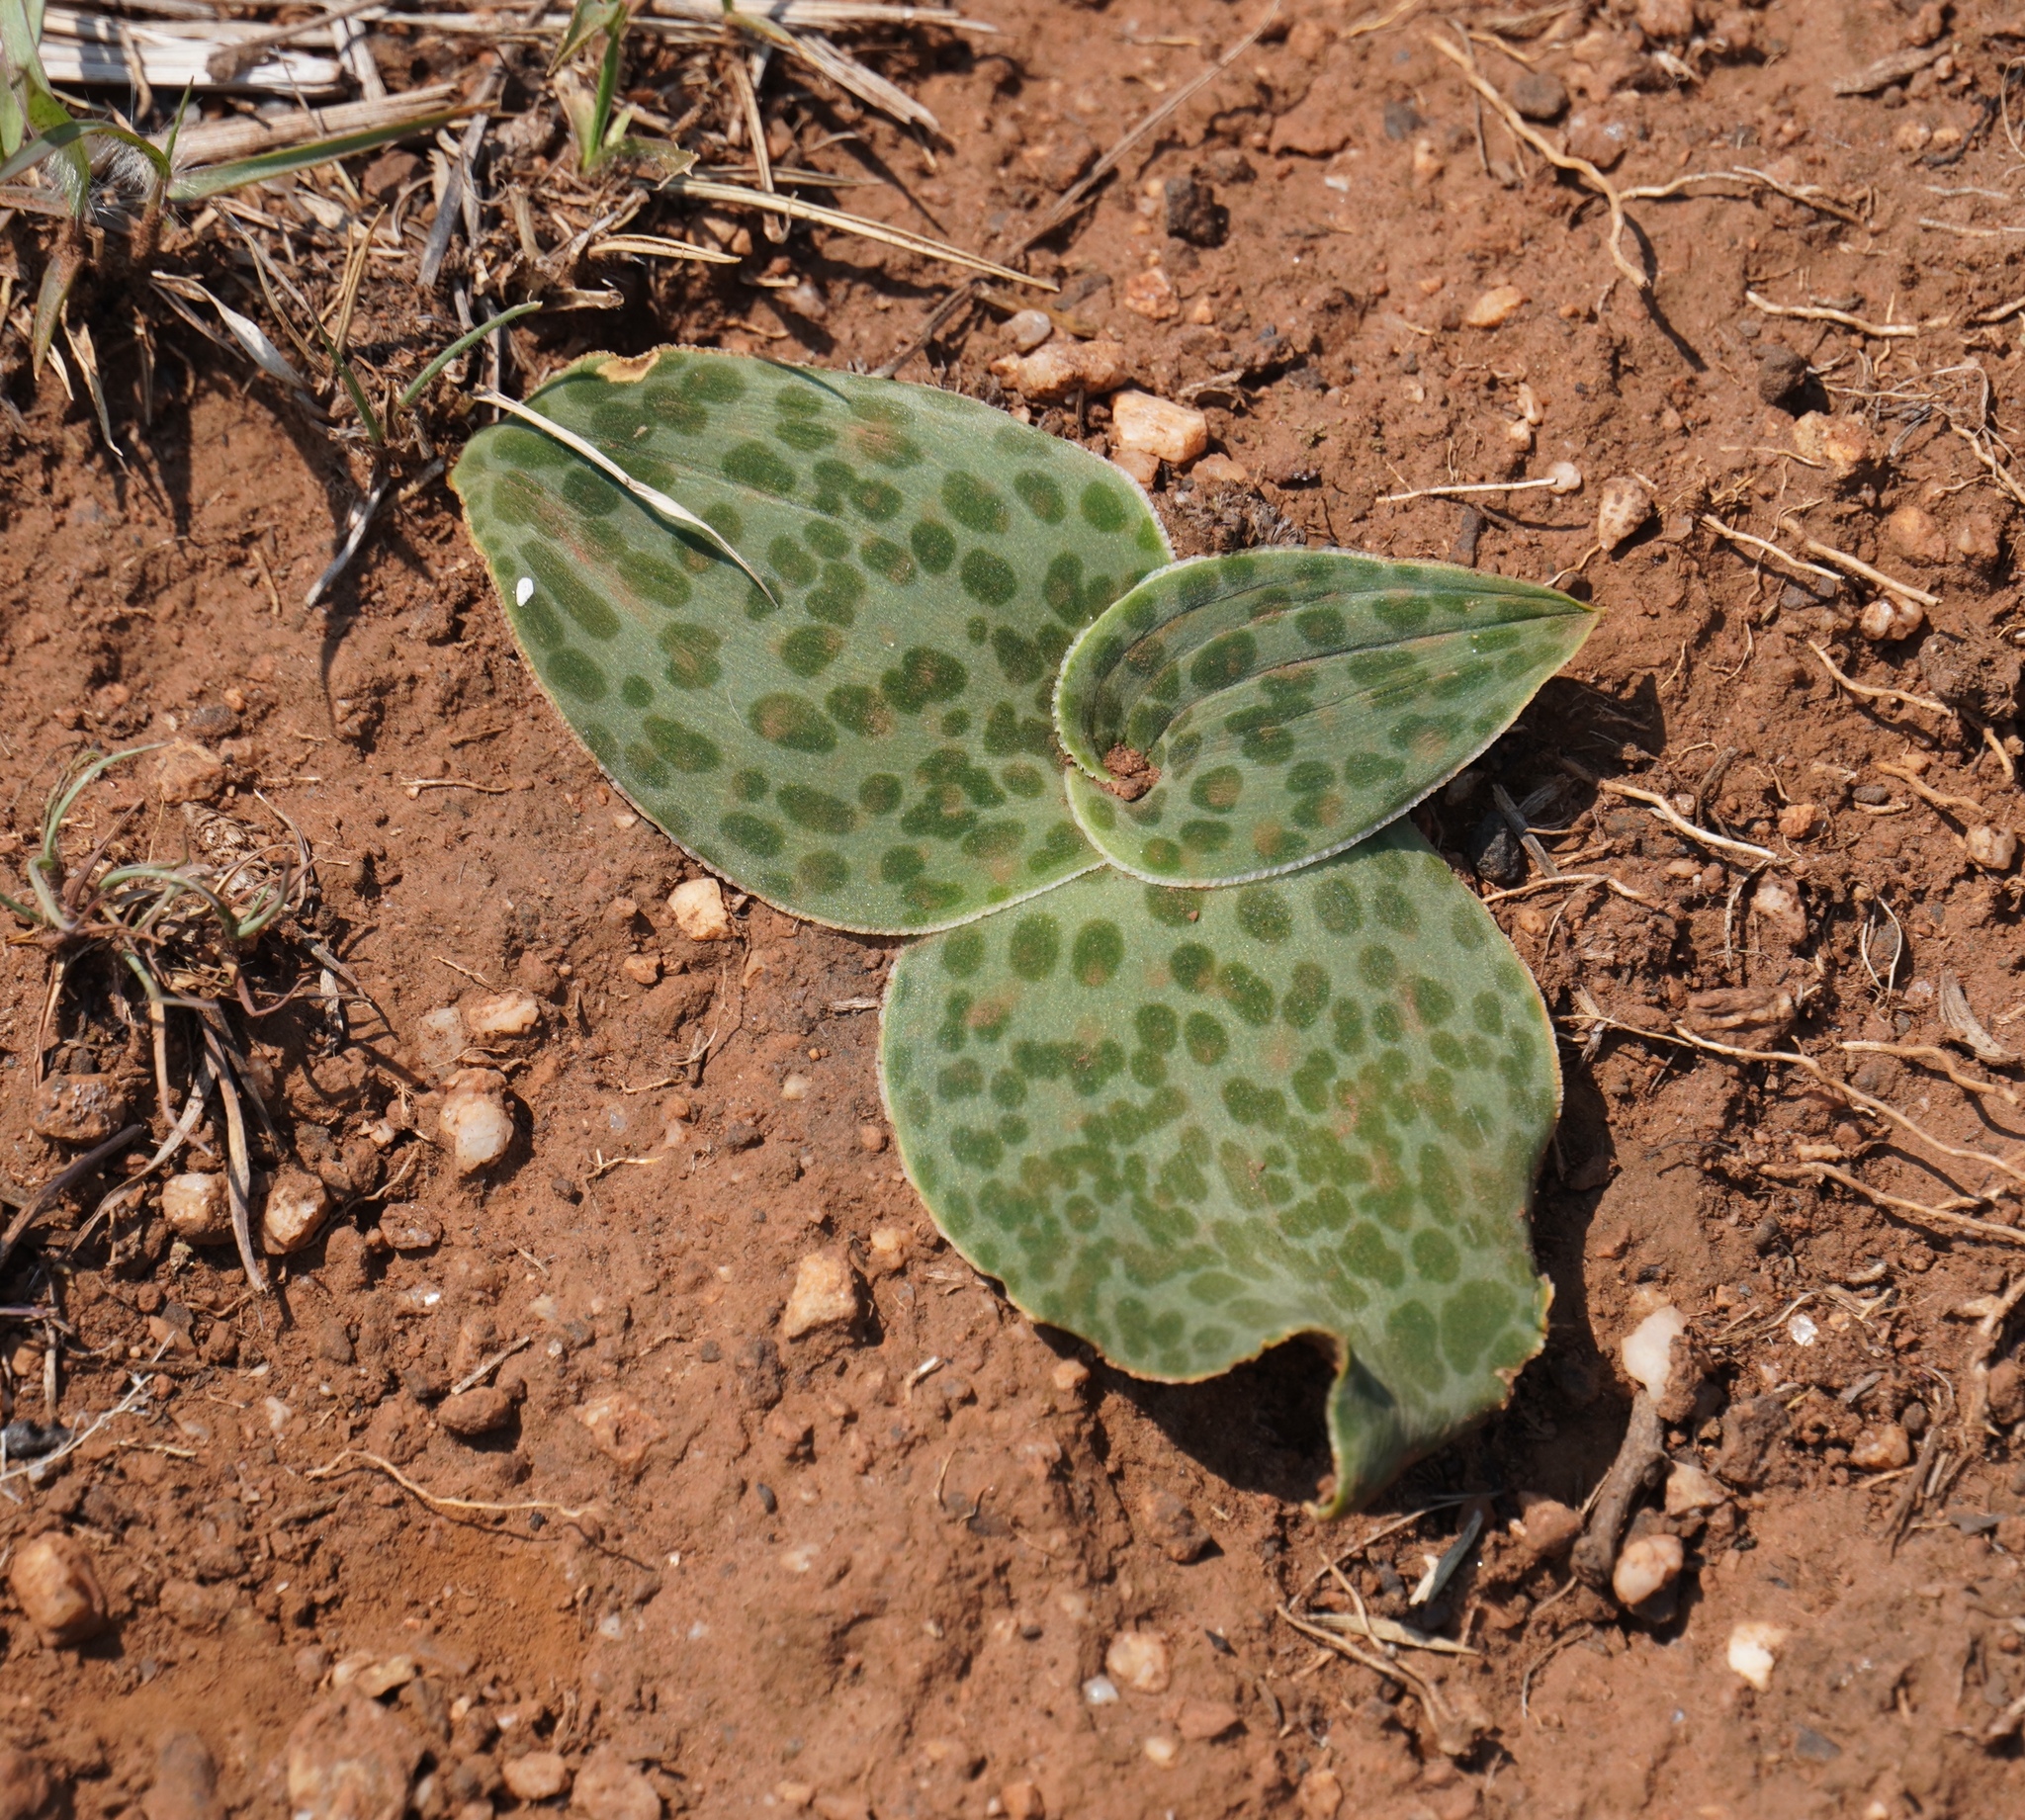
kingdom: Plantae
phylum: Tracheophyta
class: Liliopsida
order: Asparagales
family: Asparagaceae
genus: Ledebouria
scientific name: Ledebouria ovatifolia
